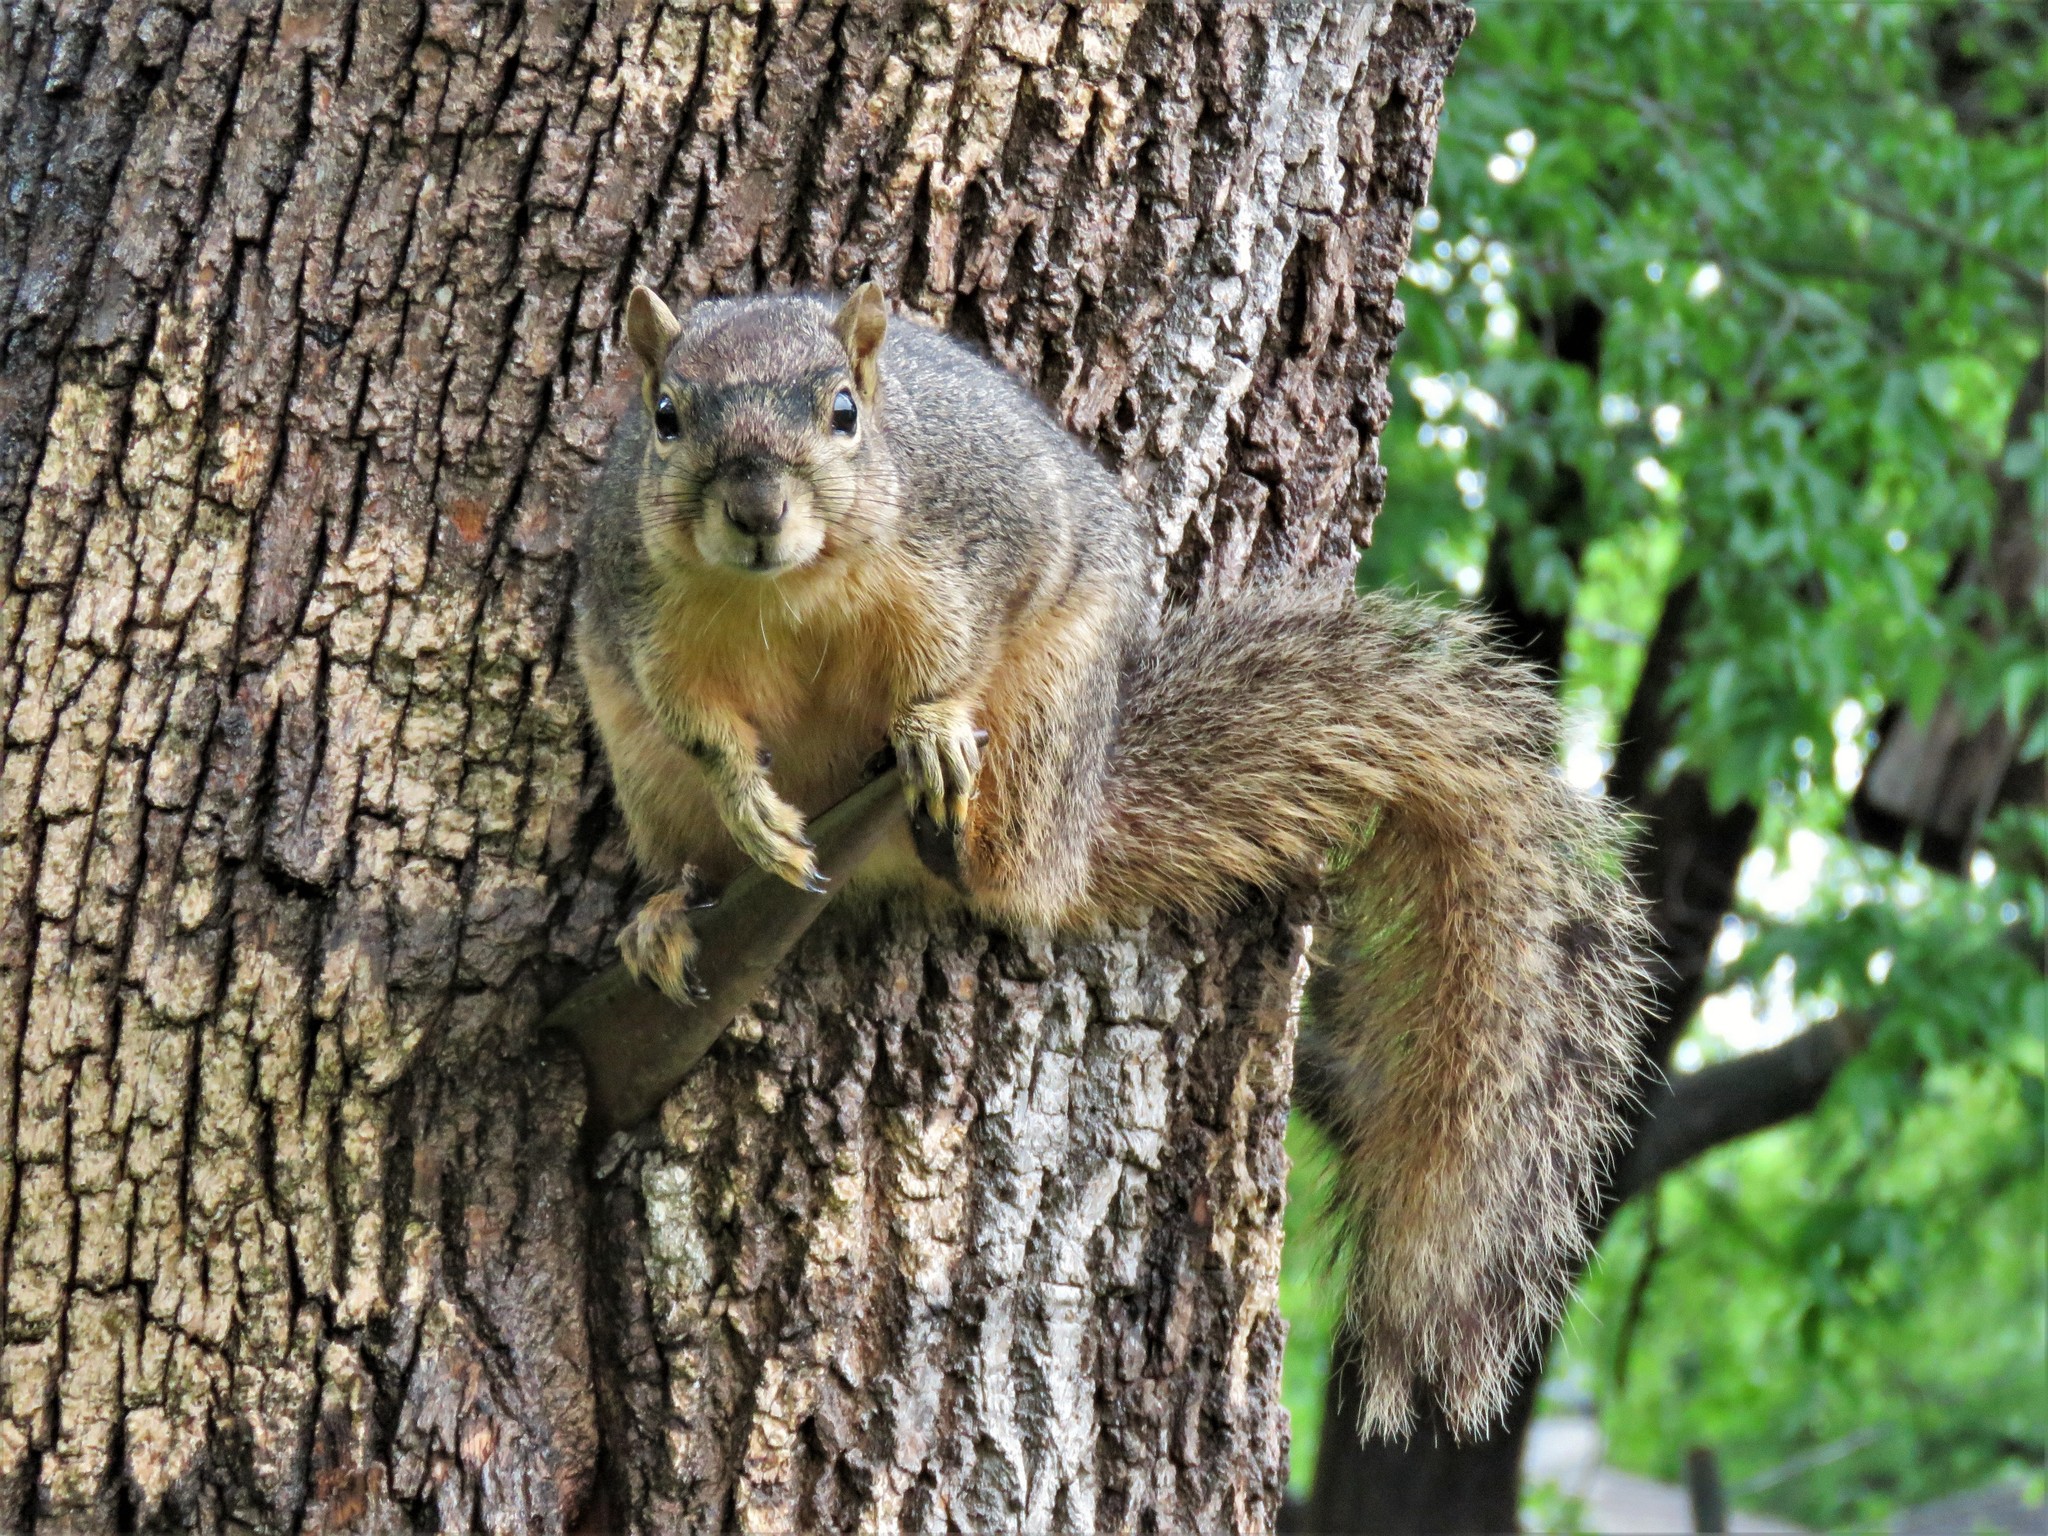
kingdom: Animalia
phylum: Chordata
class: Mammalia
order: Rodentia
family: Sciuridae
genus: Sciurus
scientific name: Sciurus niger
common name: Fox squirrel
